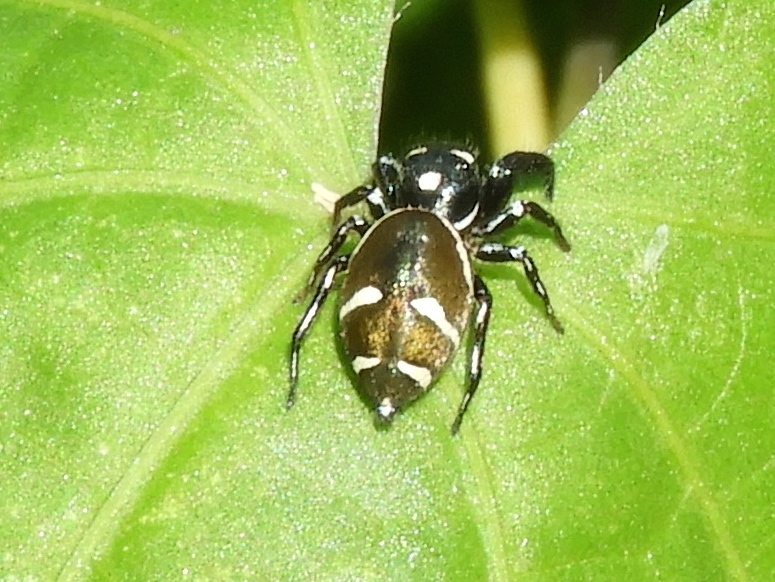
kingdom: Animalia
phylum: Arthropoda
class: Arachnida
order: Araneae
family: Salticidae
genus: Sassacus
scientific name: Sassacus
